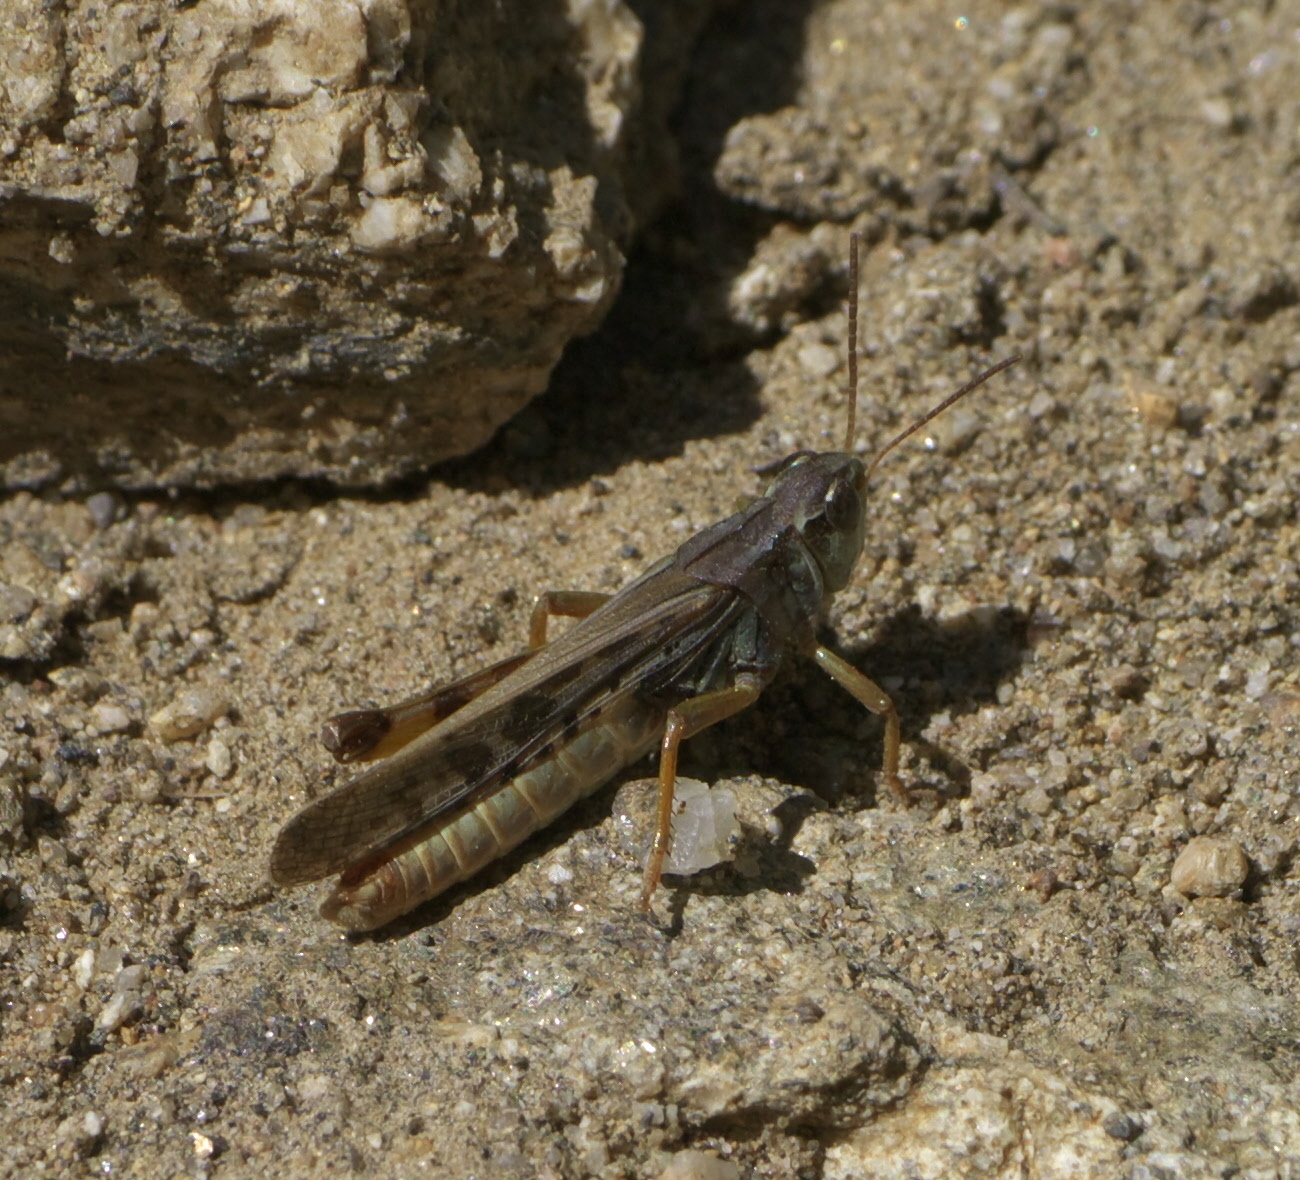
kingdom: Animalia
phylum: Arthropoda
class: Insecta
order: Orthoptera
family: Acrididae
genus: Camnula
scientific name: Camnula pellucida
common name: Clear-winged grasshopper
